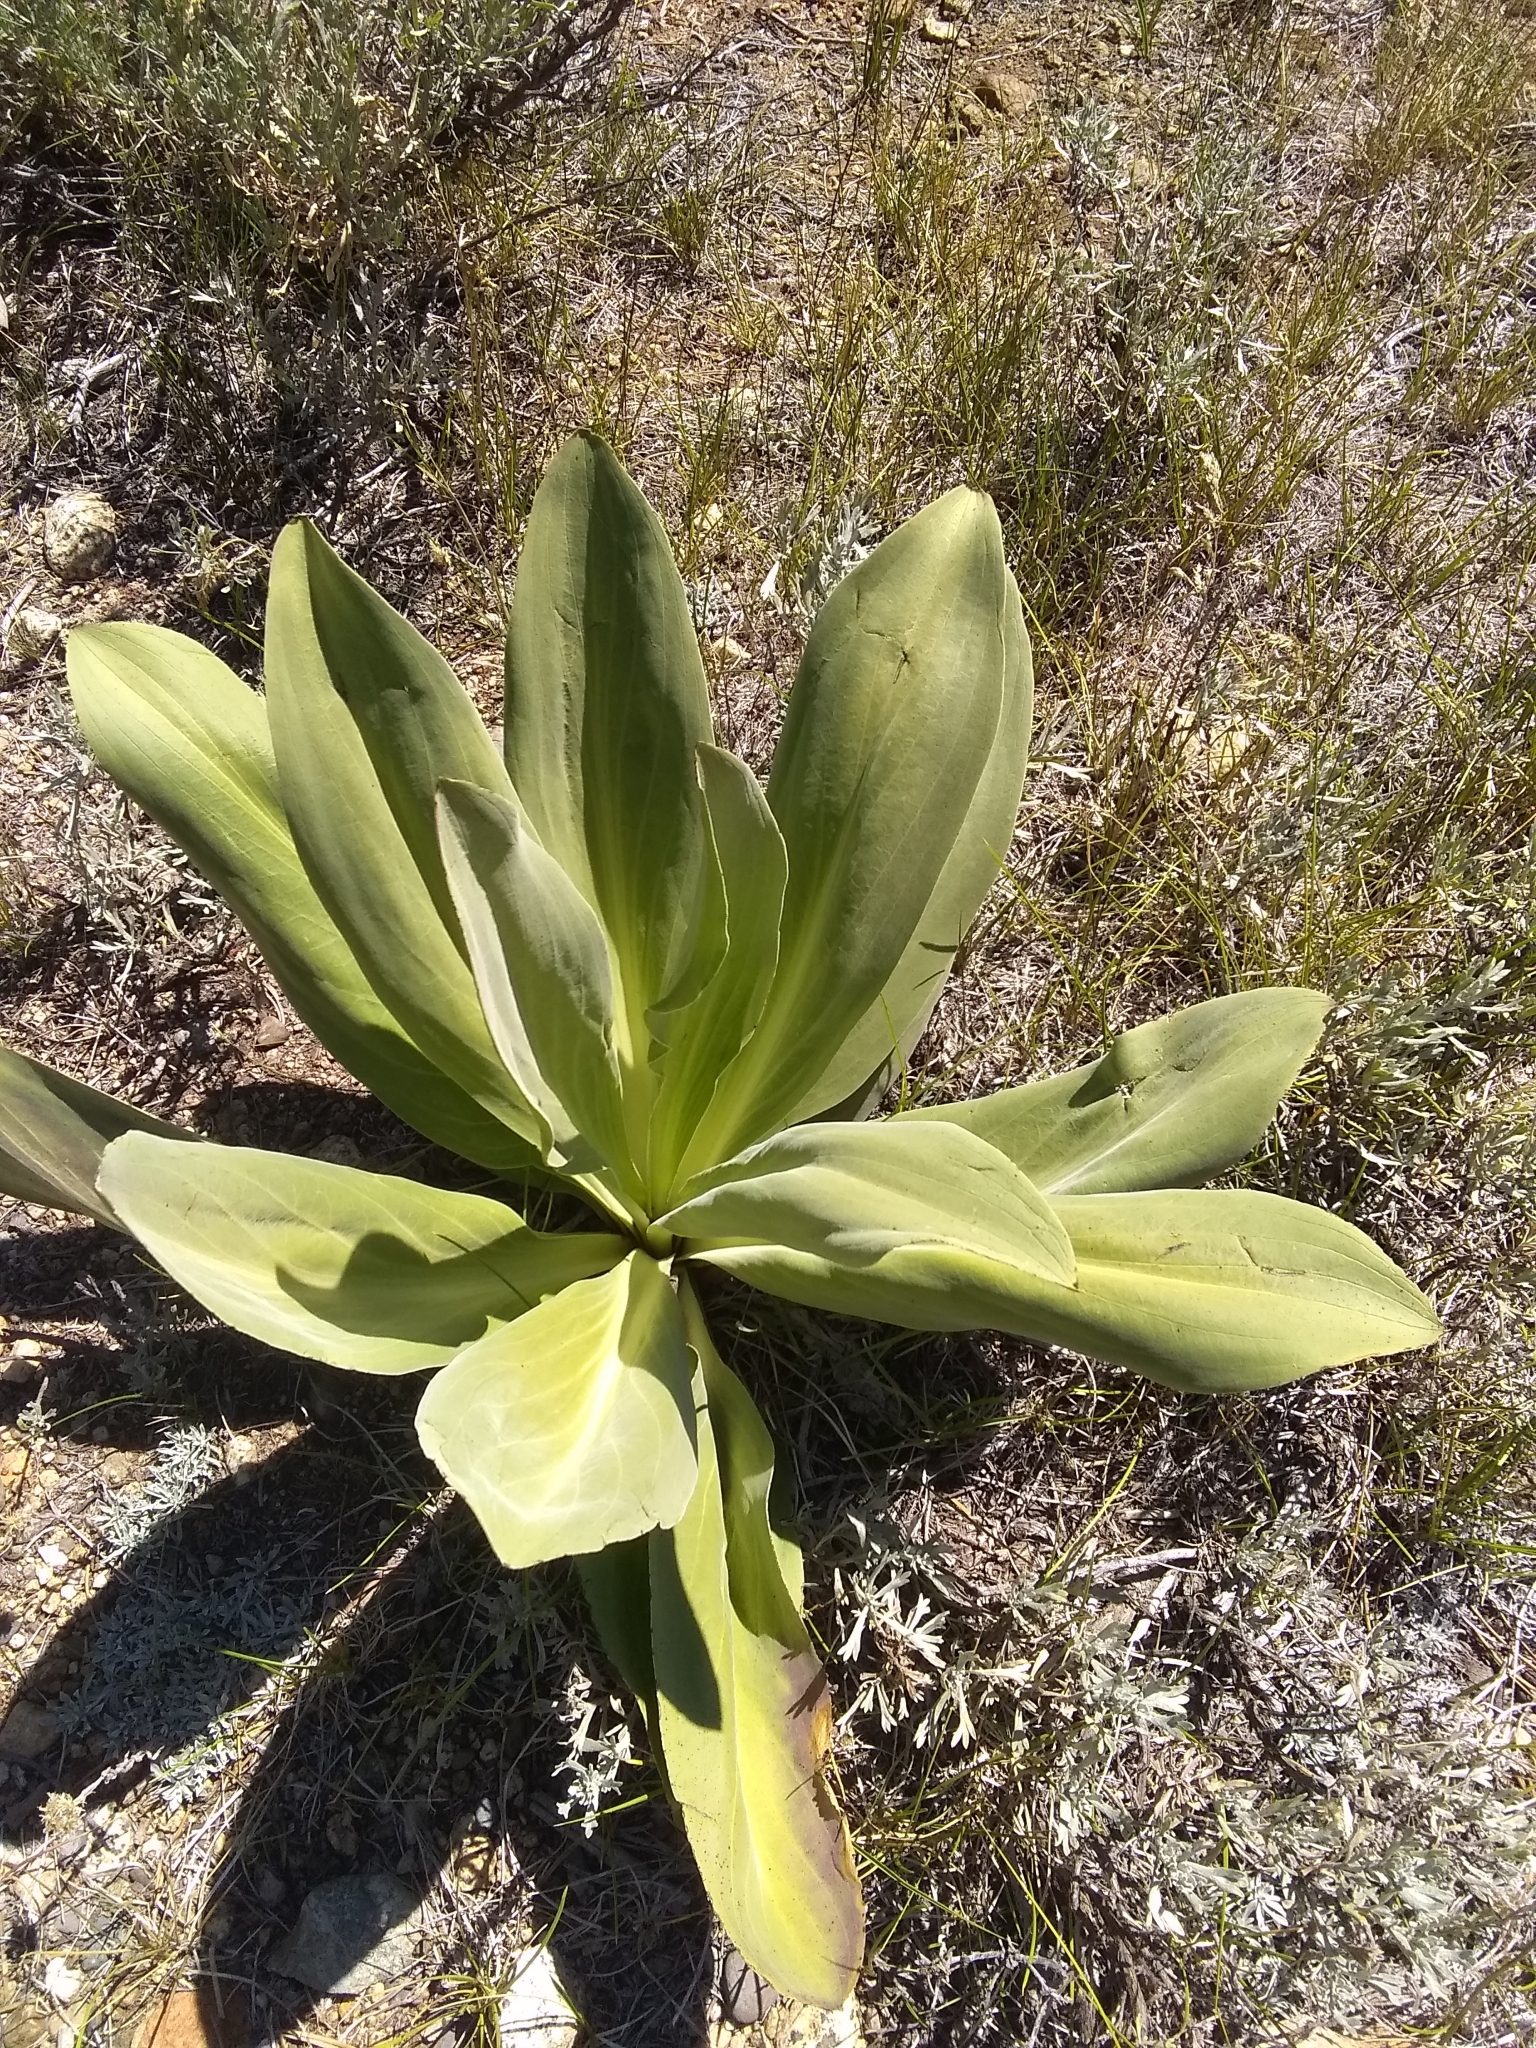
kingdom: Plantae
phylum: Tracheophyta
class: Magnoliopsida
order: Gentianales
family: Gentianaceae
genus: Frasera
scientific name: Frasera speciosa
